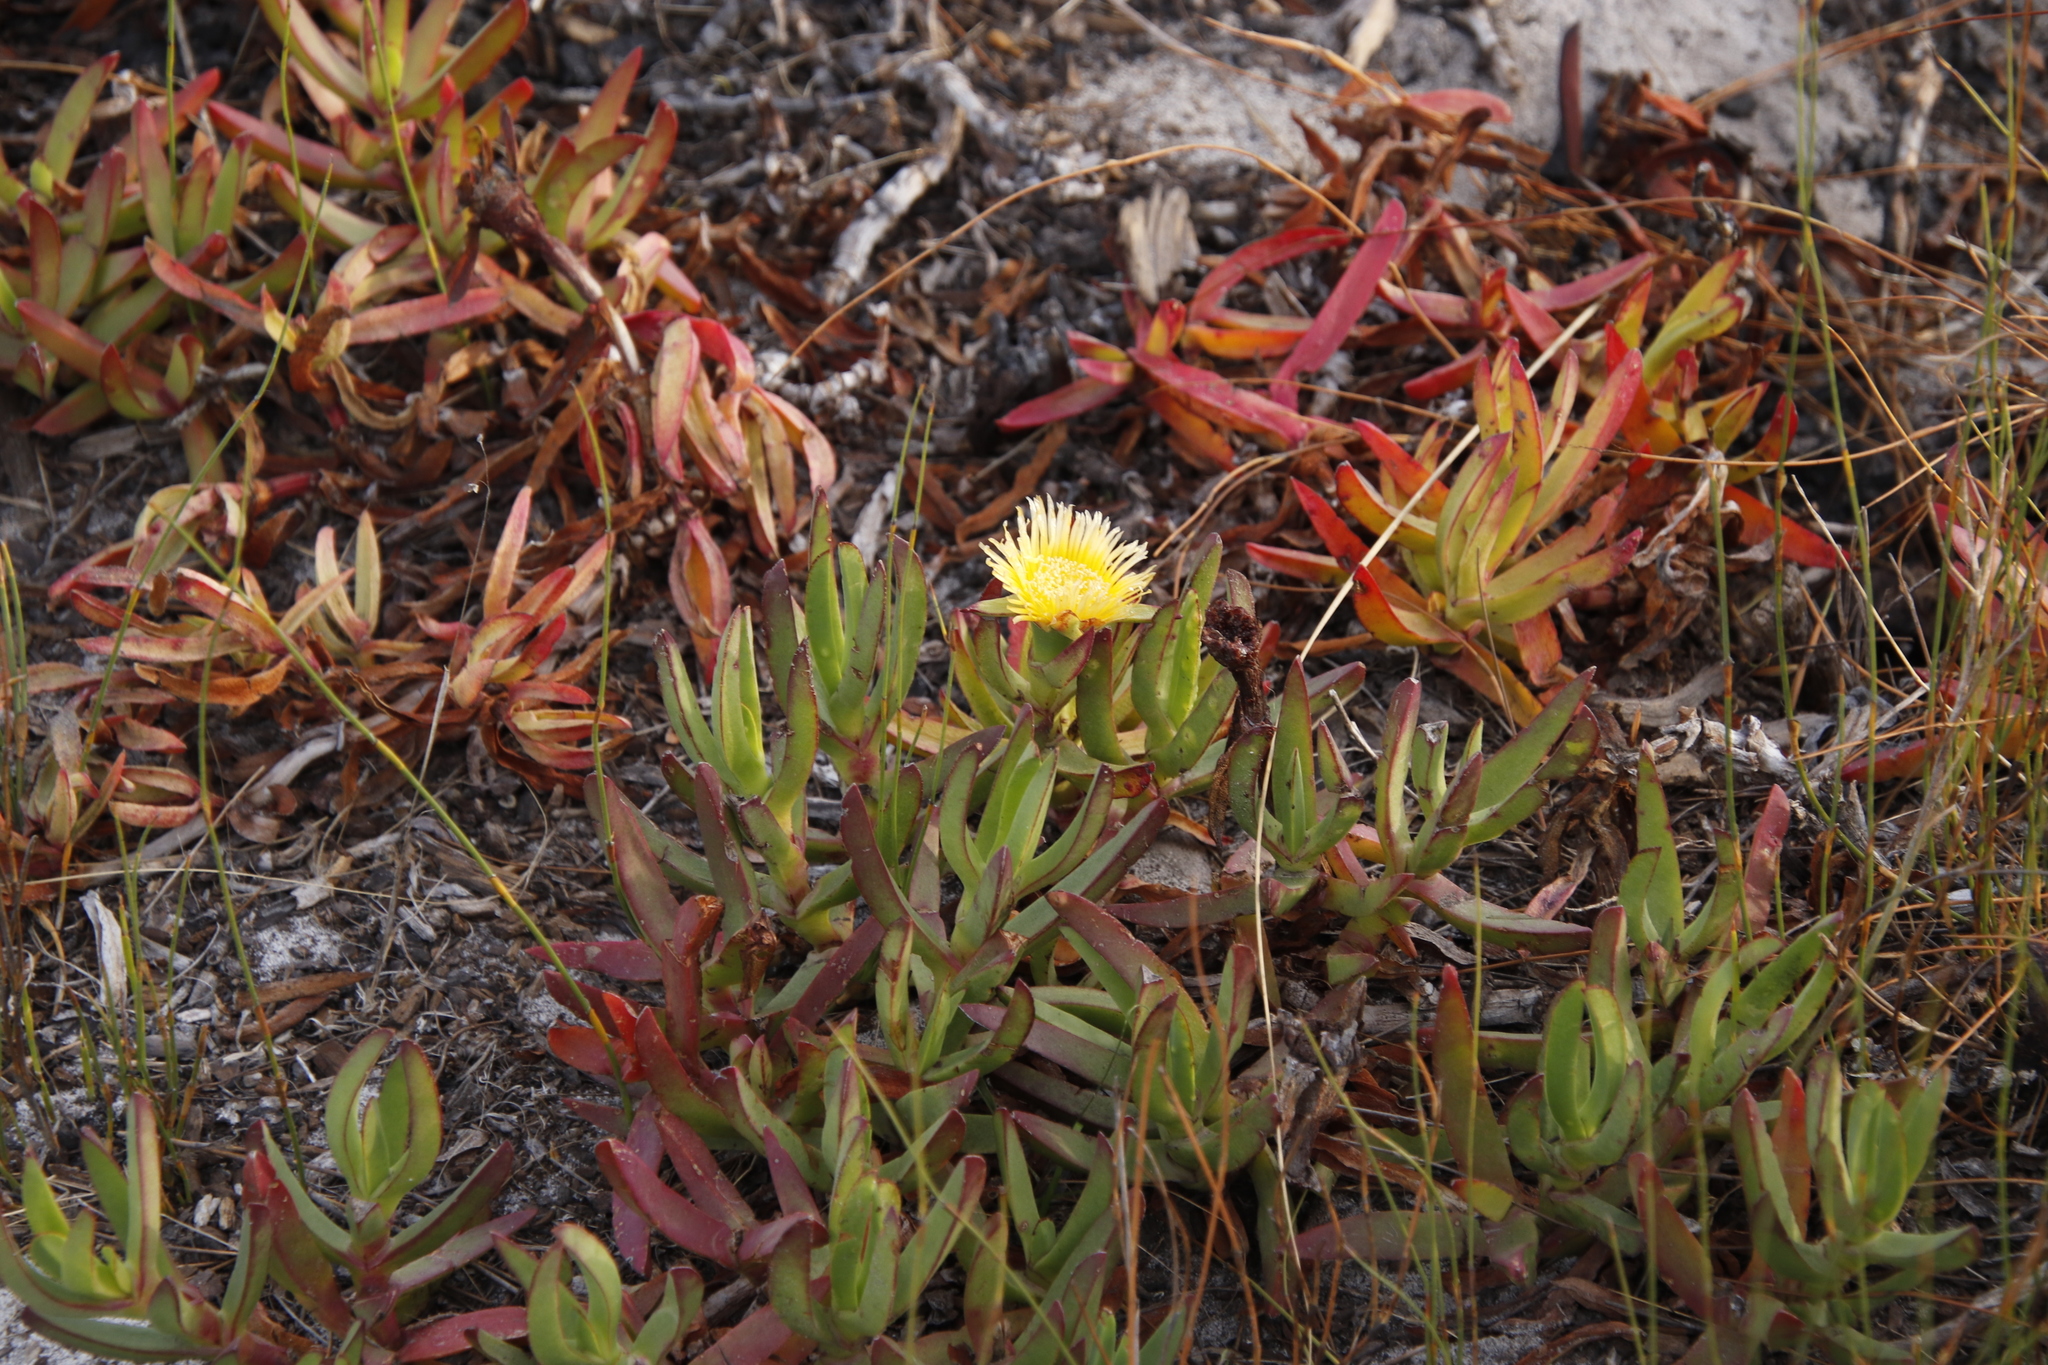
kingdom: Plantae
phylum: Tracheophyta
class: Magnoliopsida
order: Caryophyllales
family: Aizoaceae
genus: Carpobrotus
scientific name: Carpobrotus edulis
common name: Hottentot-fig
